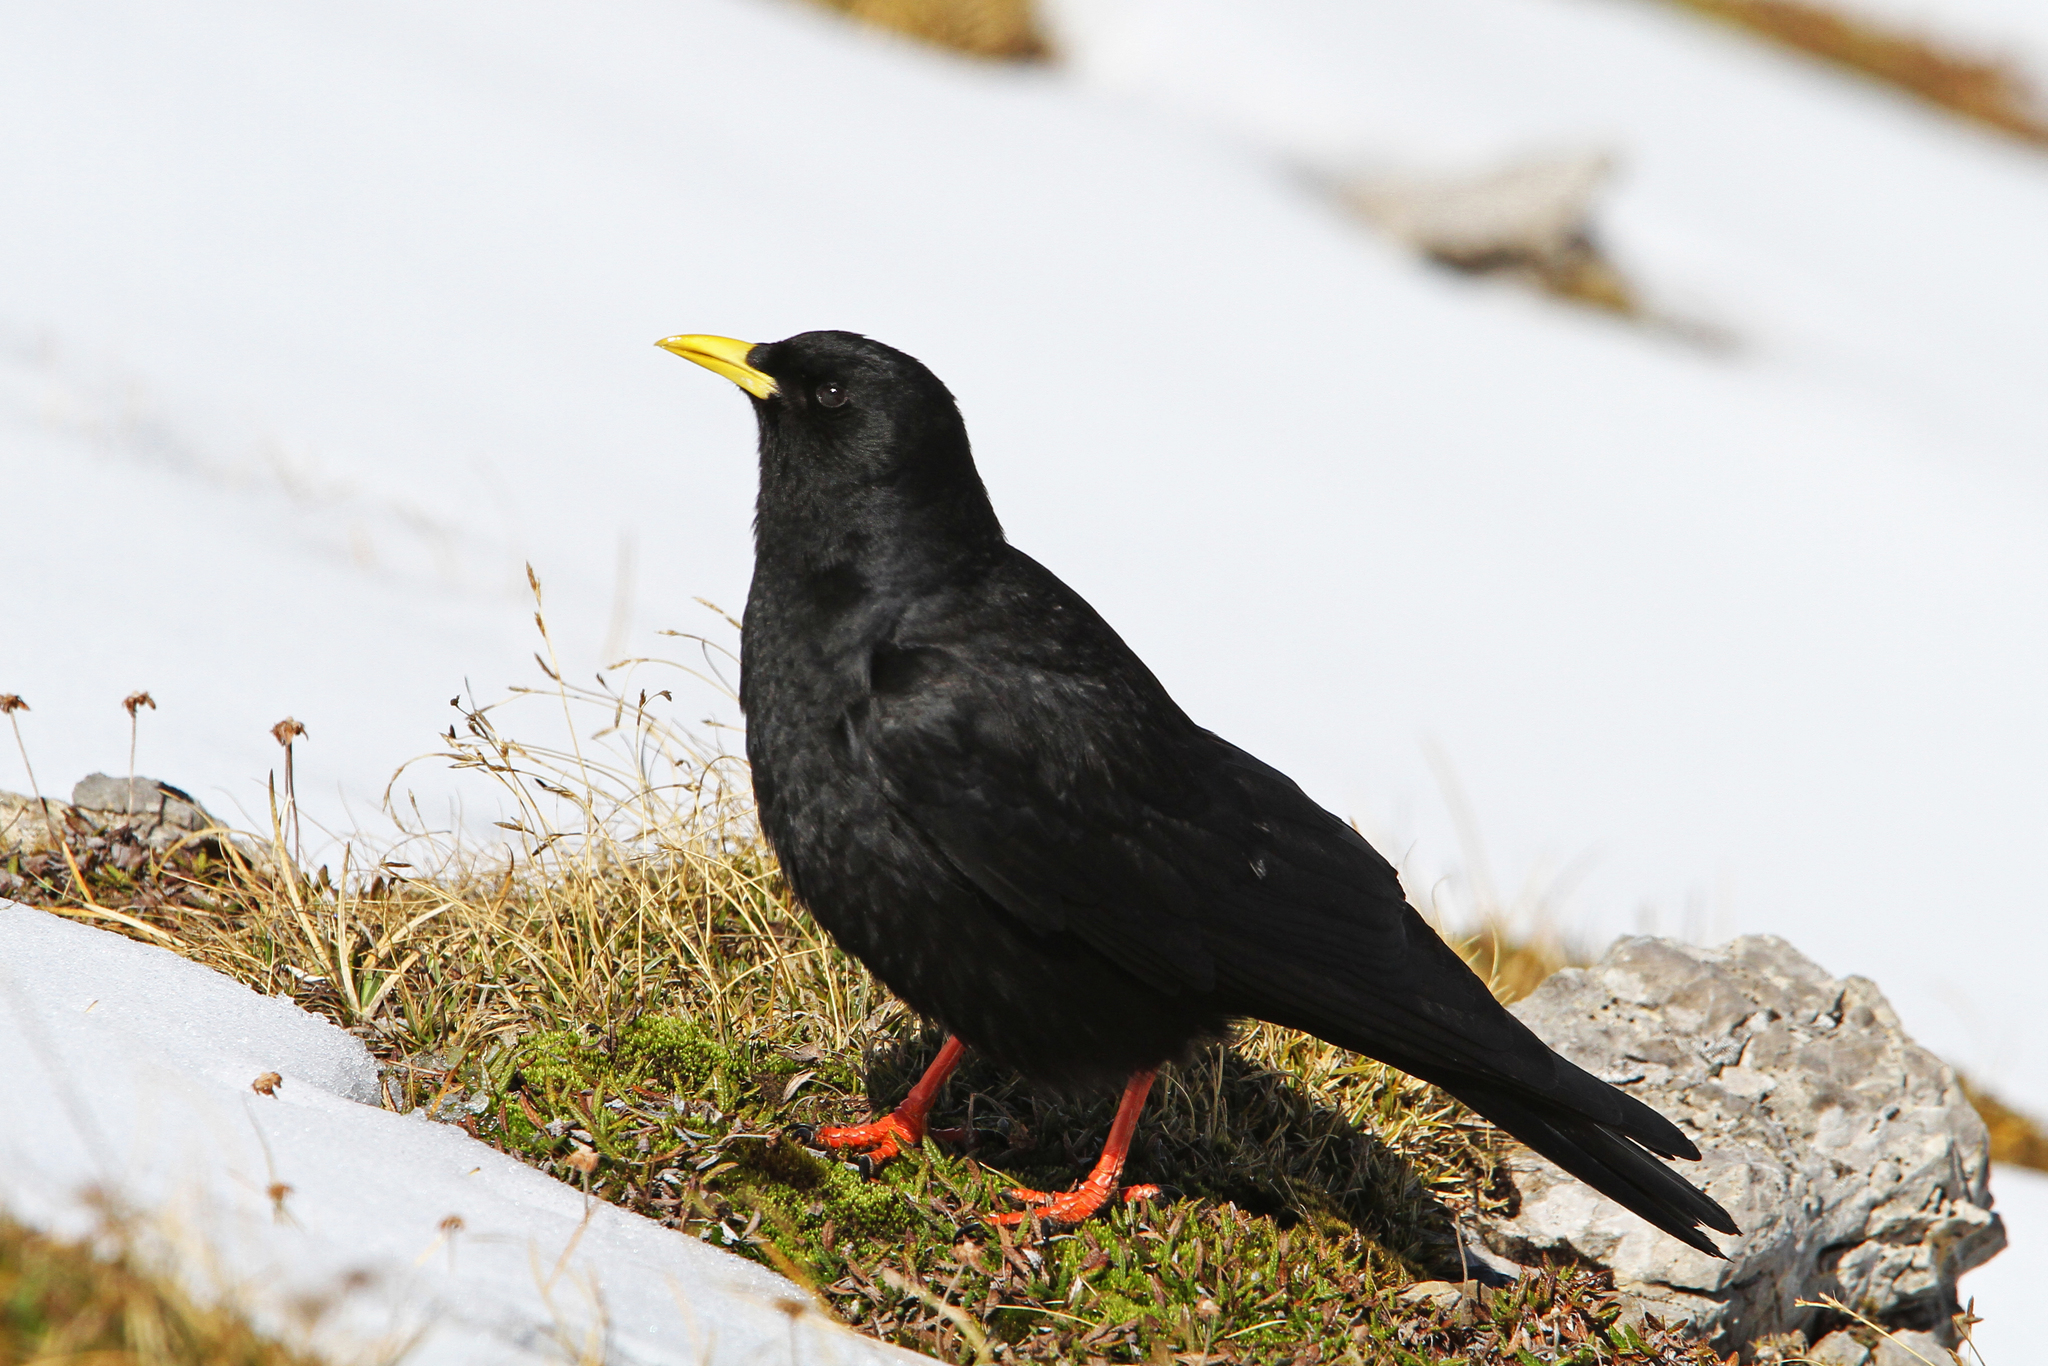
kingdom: Animalia
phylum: Chordata
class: Aves
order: Passeriformes
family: Corvidae
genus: Pyrrhocorax
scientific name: Pyrrhocorax graculus
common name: Alpine chough
